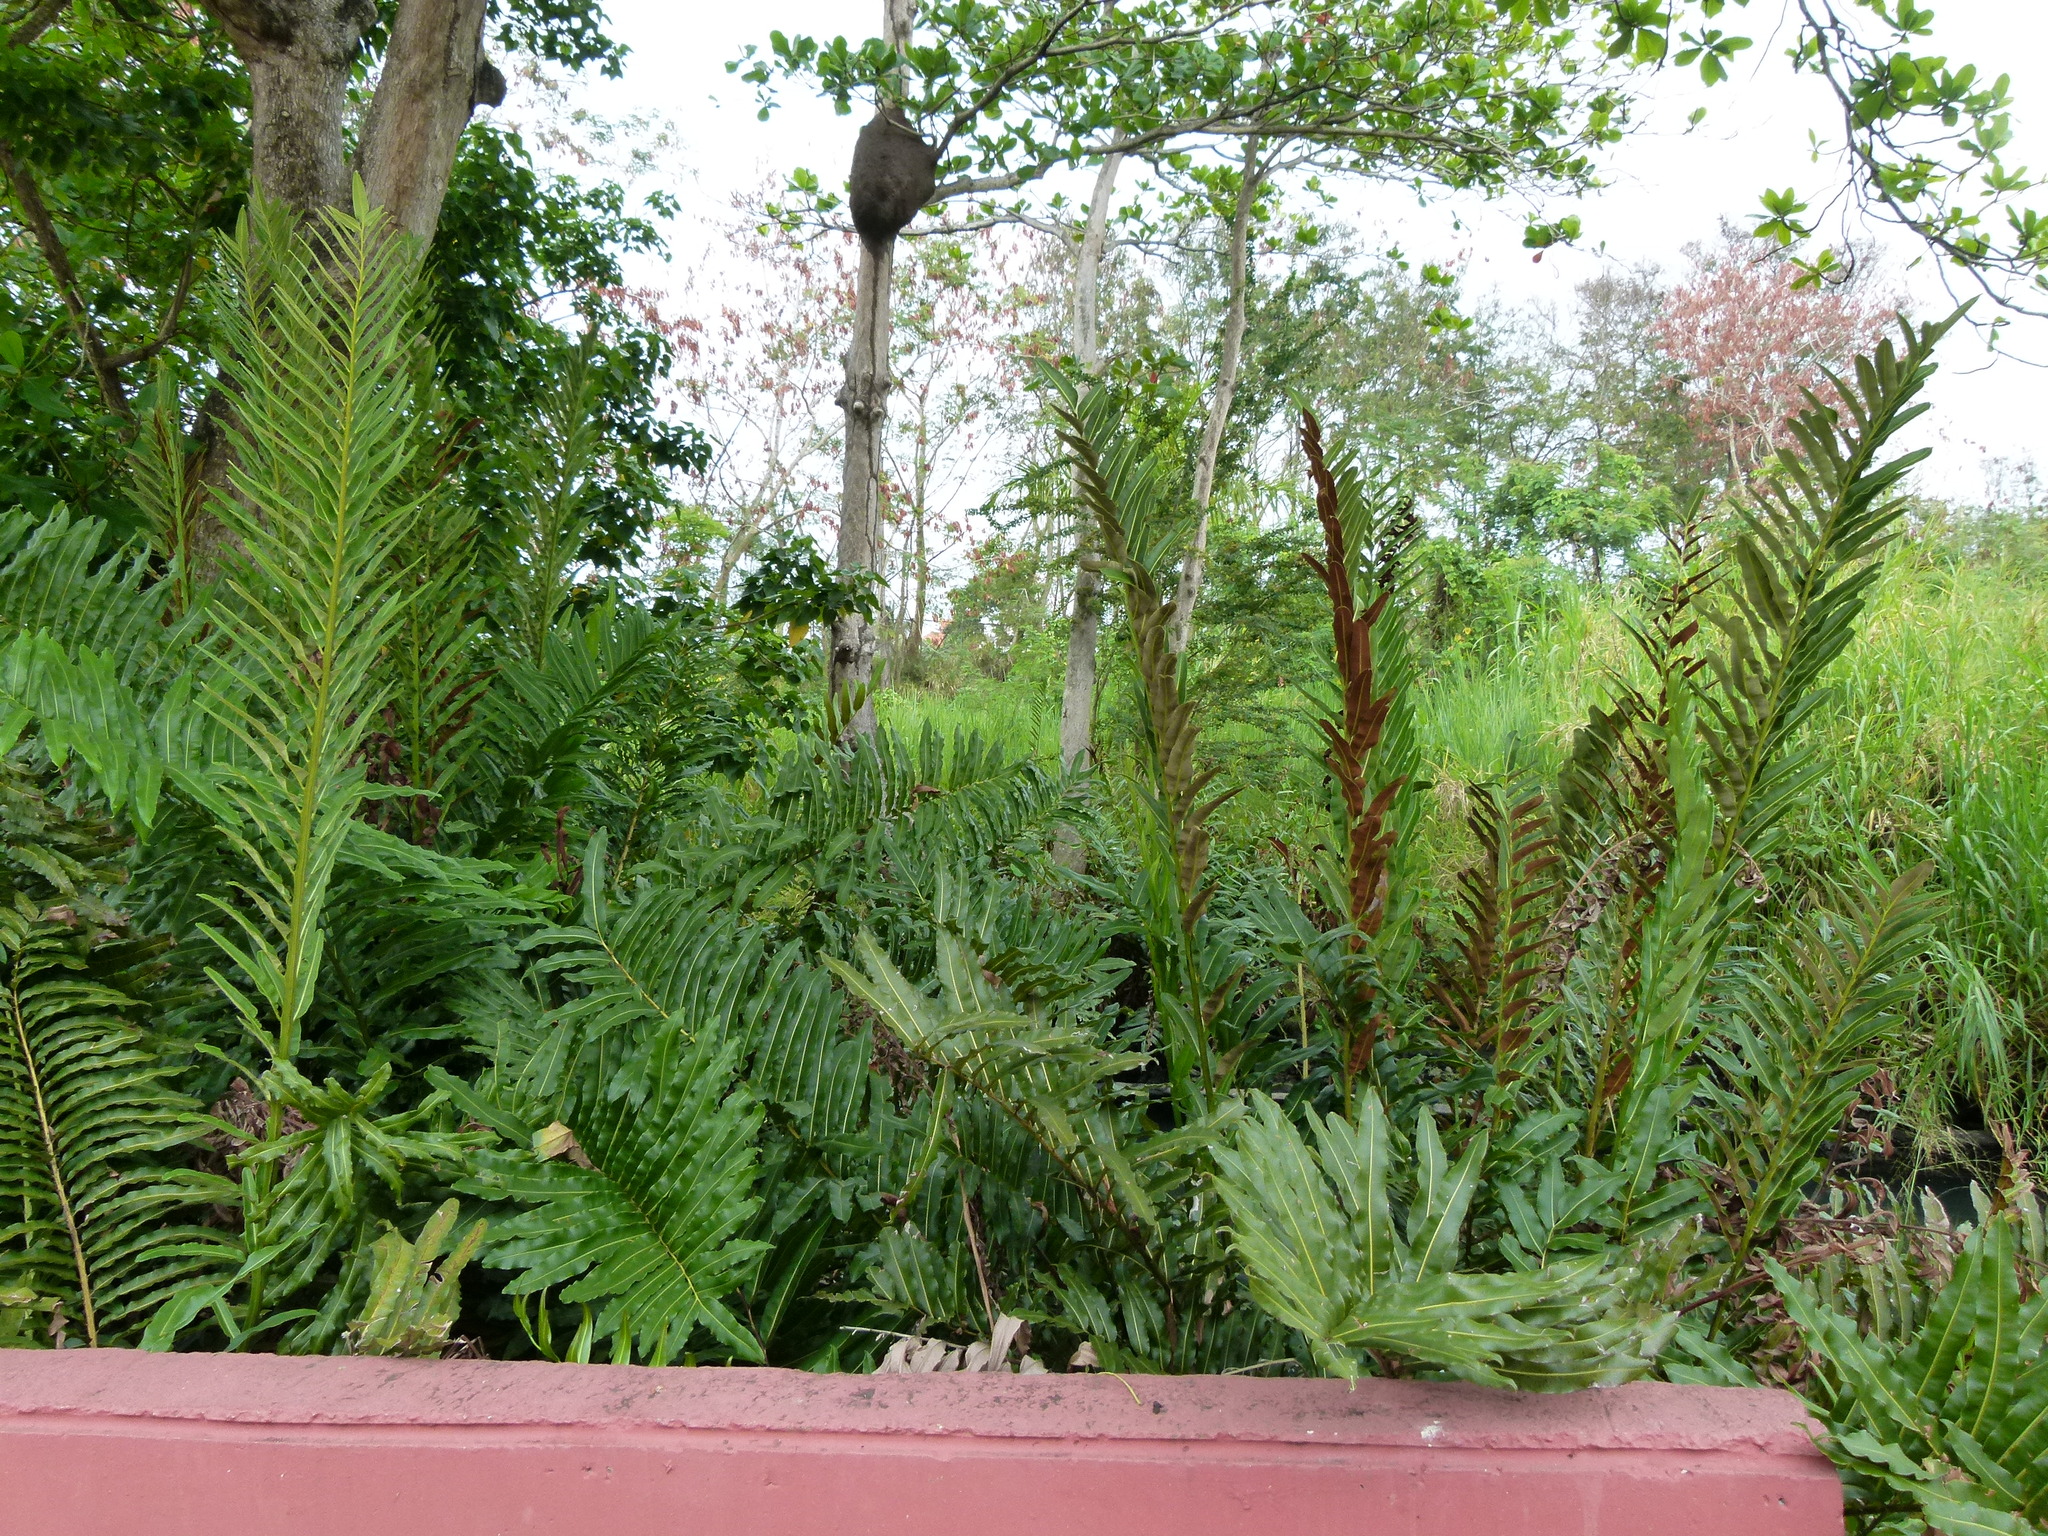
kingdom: Plantae
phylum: Tracheophyta
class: Polypodiopsida
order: Polypodiales
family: Pteridaceae
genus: Acrostichum
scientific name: Acrostichum danaeifolium
